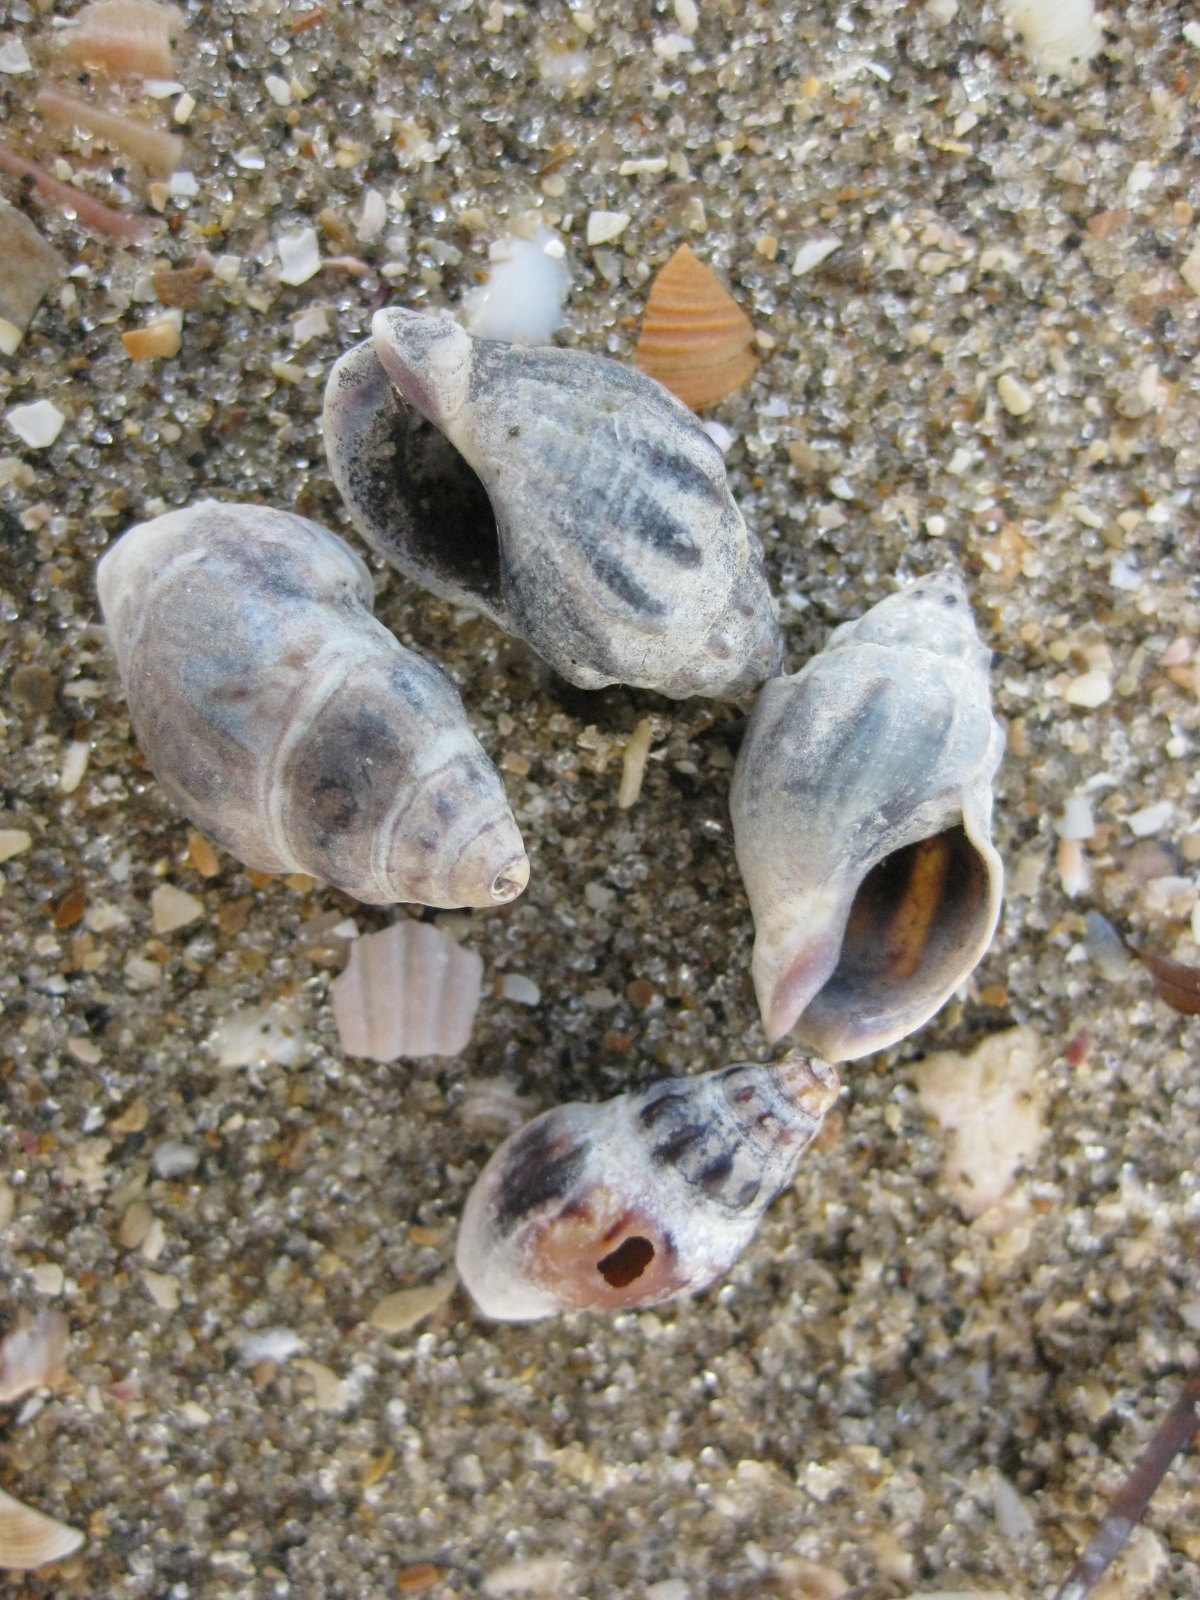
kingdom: Animalia
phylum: Mollusca
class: Gastropoda
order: Neogastropoda
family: Cominellidae
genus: Cominella
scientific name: Cominella glandiformis
